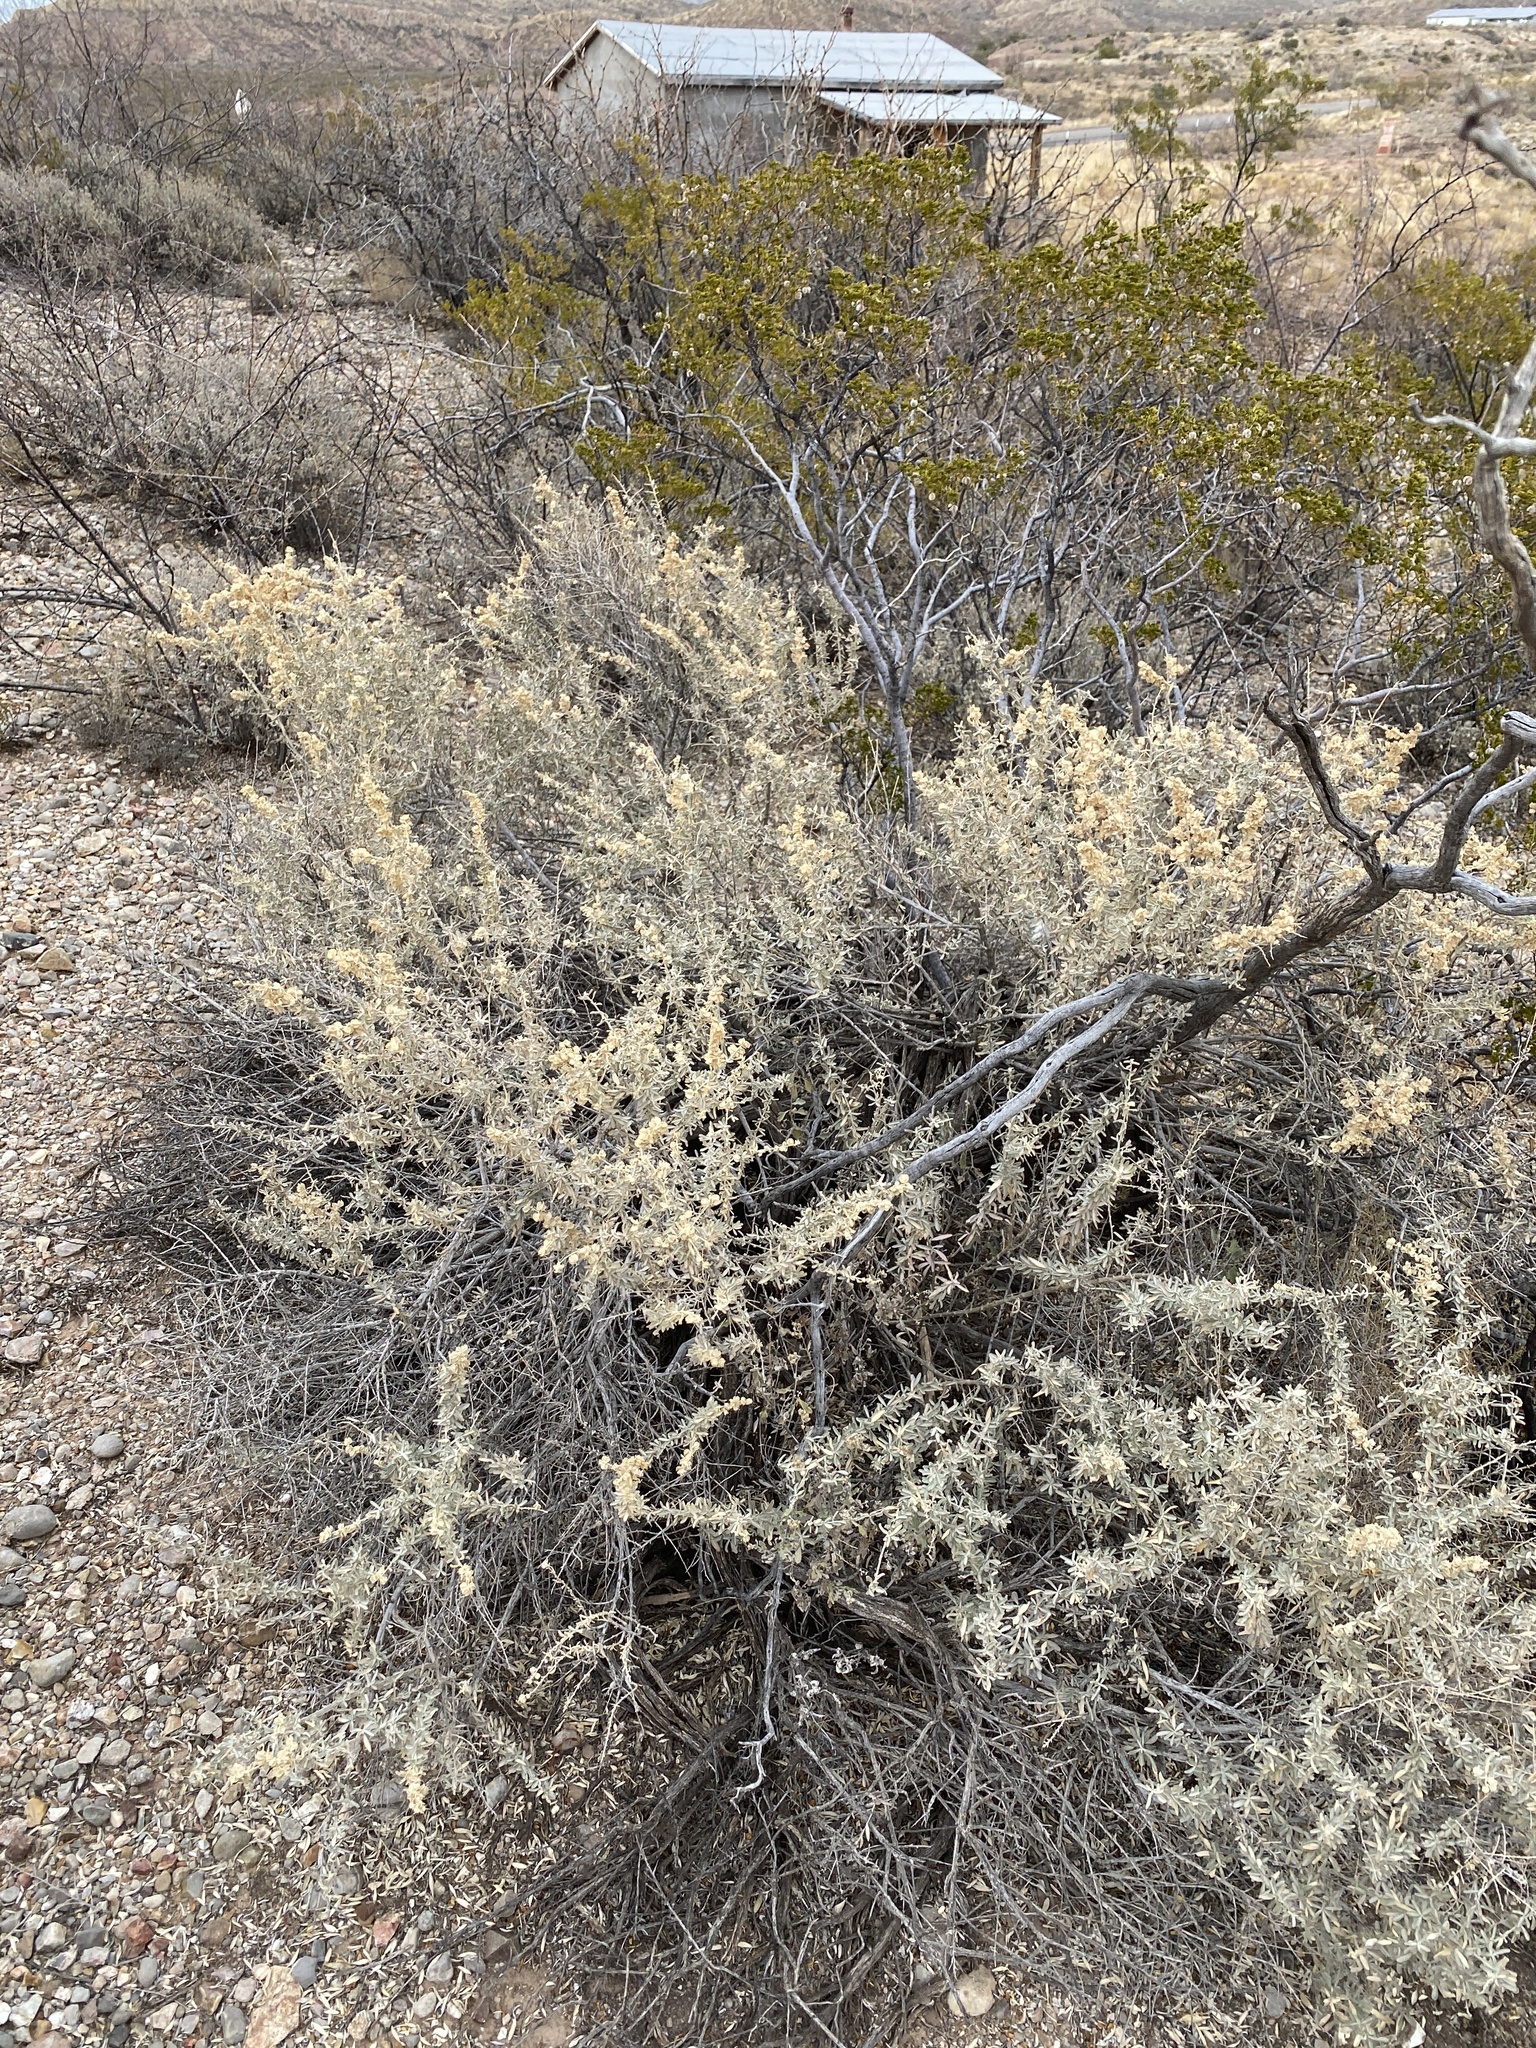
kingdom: Plantae
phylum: Tracheophyta
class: Magnoliopsida
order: Caryophyllales
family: Amaranthaceae
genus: Atriplex
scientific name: Atriplex canescens
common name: Four-wing saltbush
